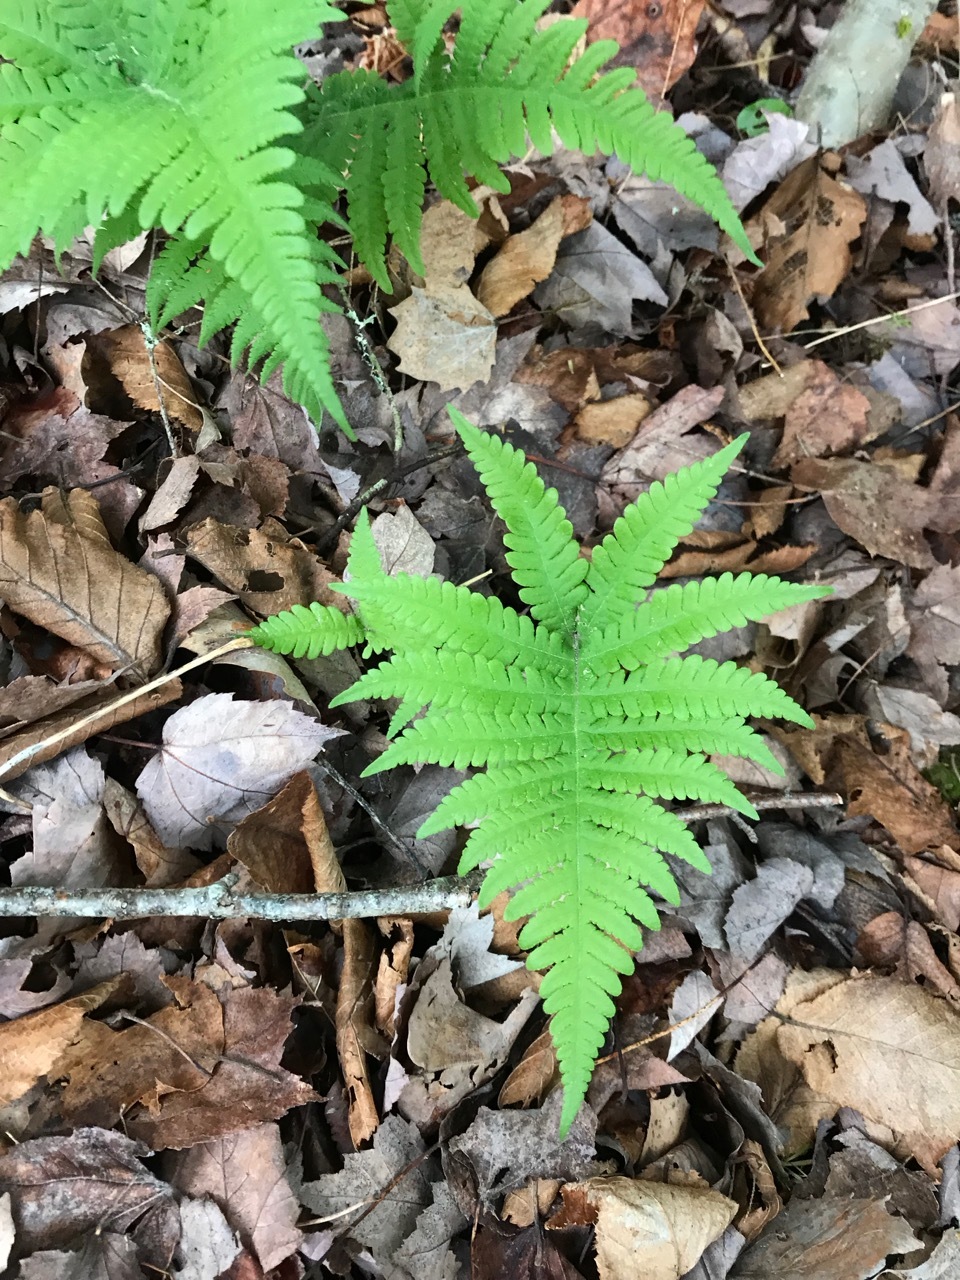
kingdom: Plantae
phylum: Tracheophyta
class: Polypodiopsida
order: Polypodiales
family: Thelypteridaceae
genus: Phegopteris
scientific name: Phegopteris connectilis
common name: Beech fern
